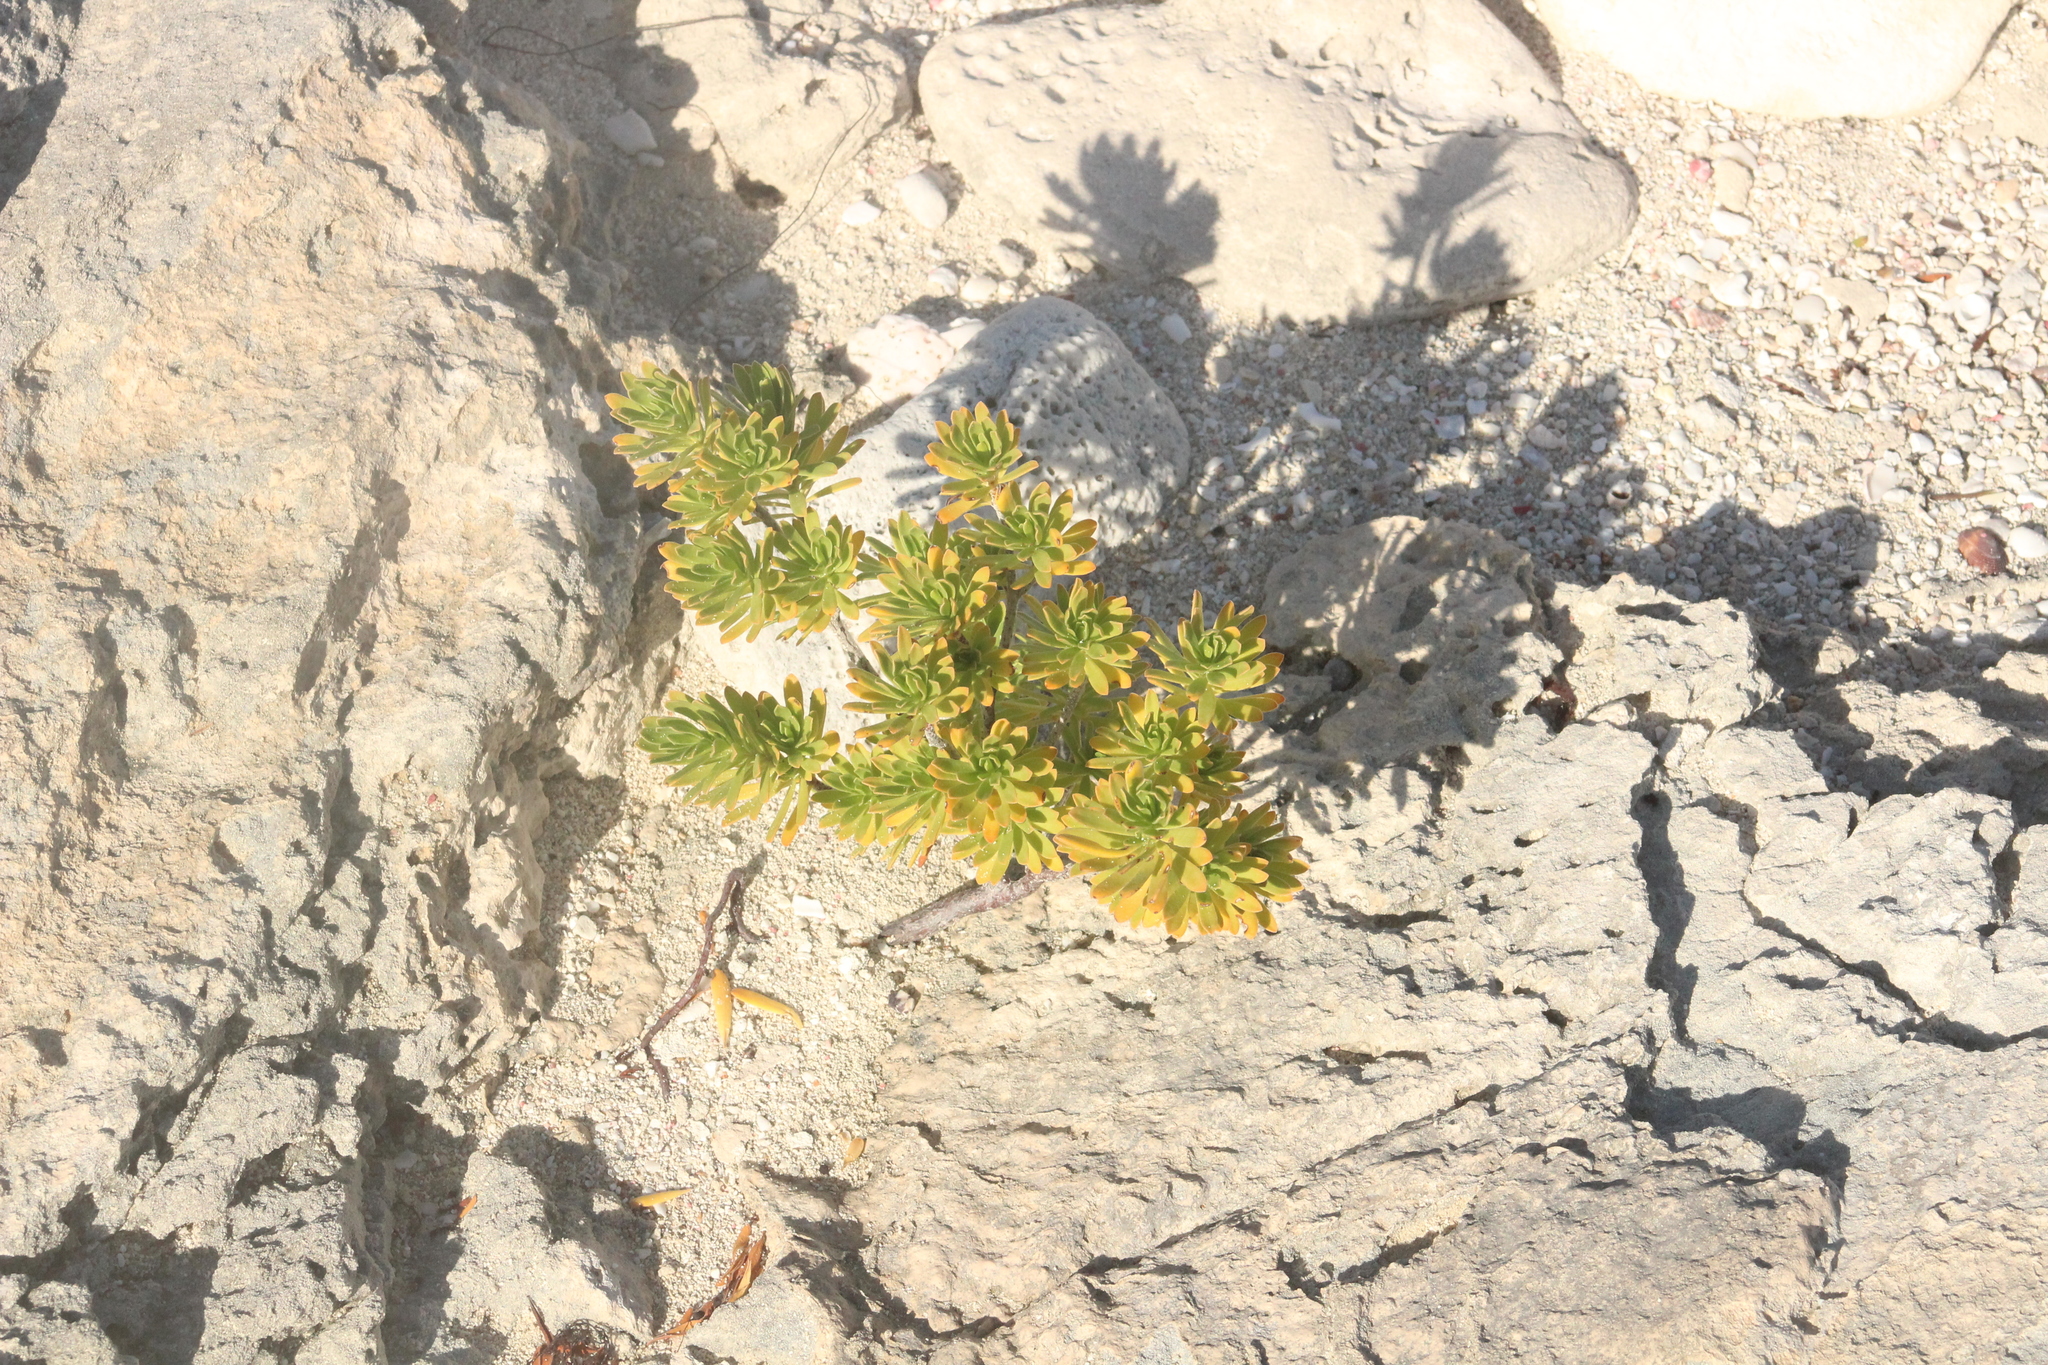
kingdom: Plantae
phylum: Tracheophyta
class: Magnoliopsida
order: Fabales
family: Surianaceae
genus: Suriana
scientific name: Suriana maritima
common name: Bay-cedar
